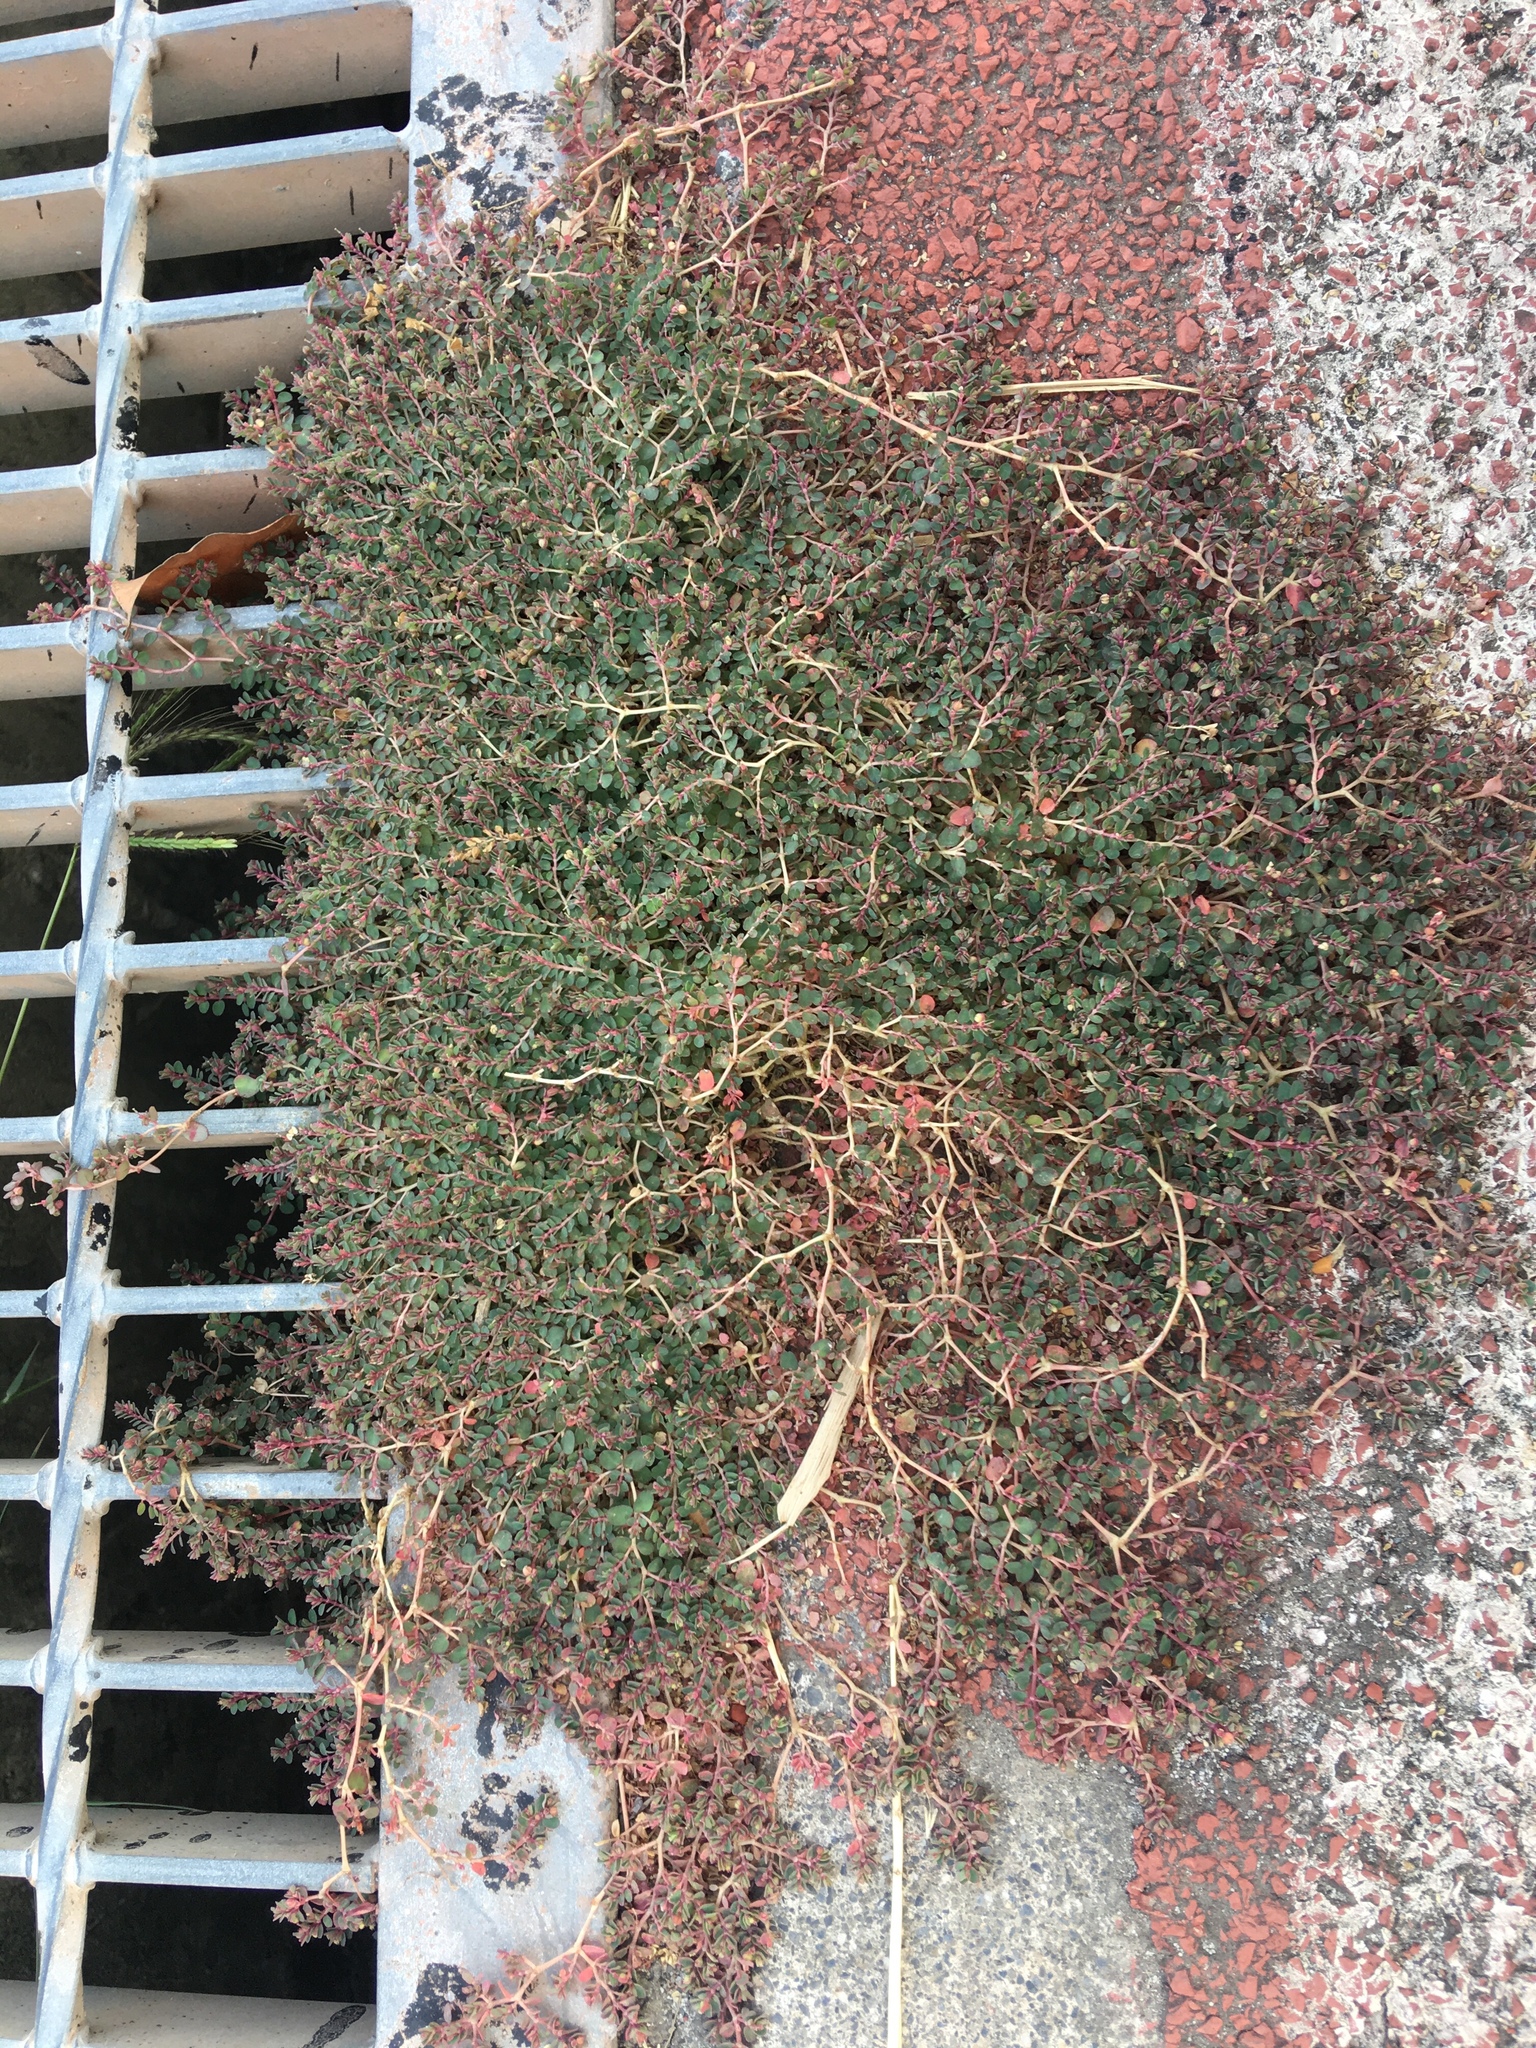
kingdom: Plantae
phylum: Tracheophyta
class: Magnoliopsida
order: Malpighiales
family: Euphorbiaceae
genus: Euphorbia
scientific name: Euphorbia makinoi
